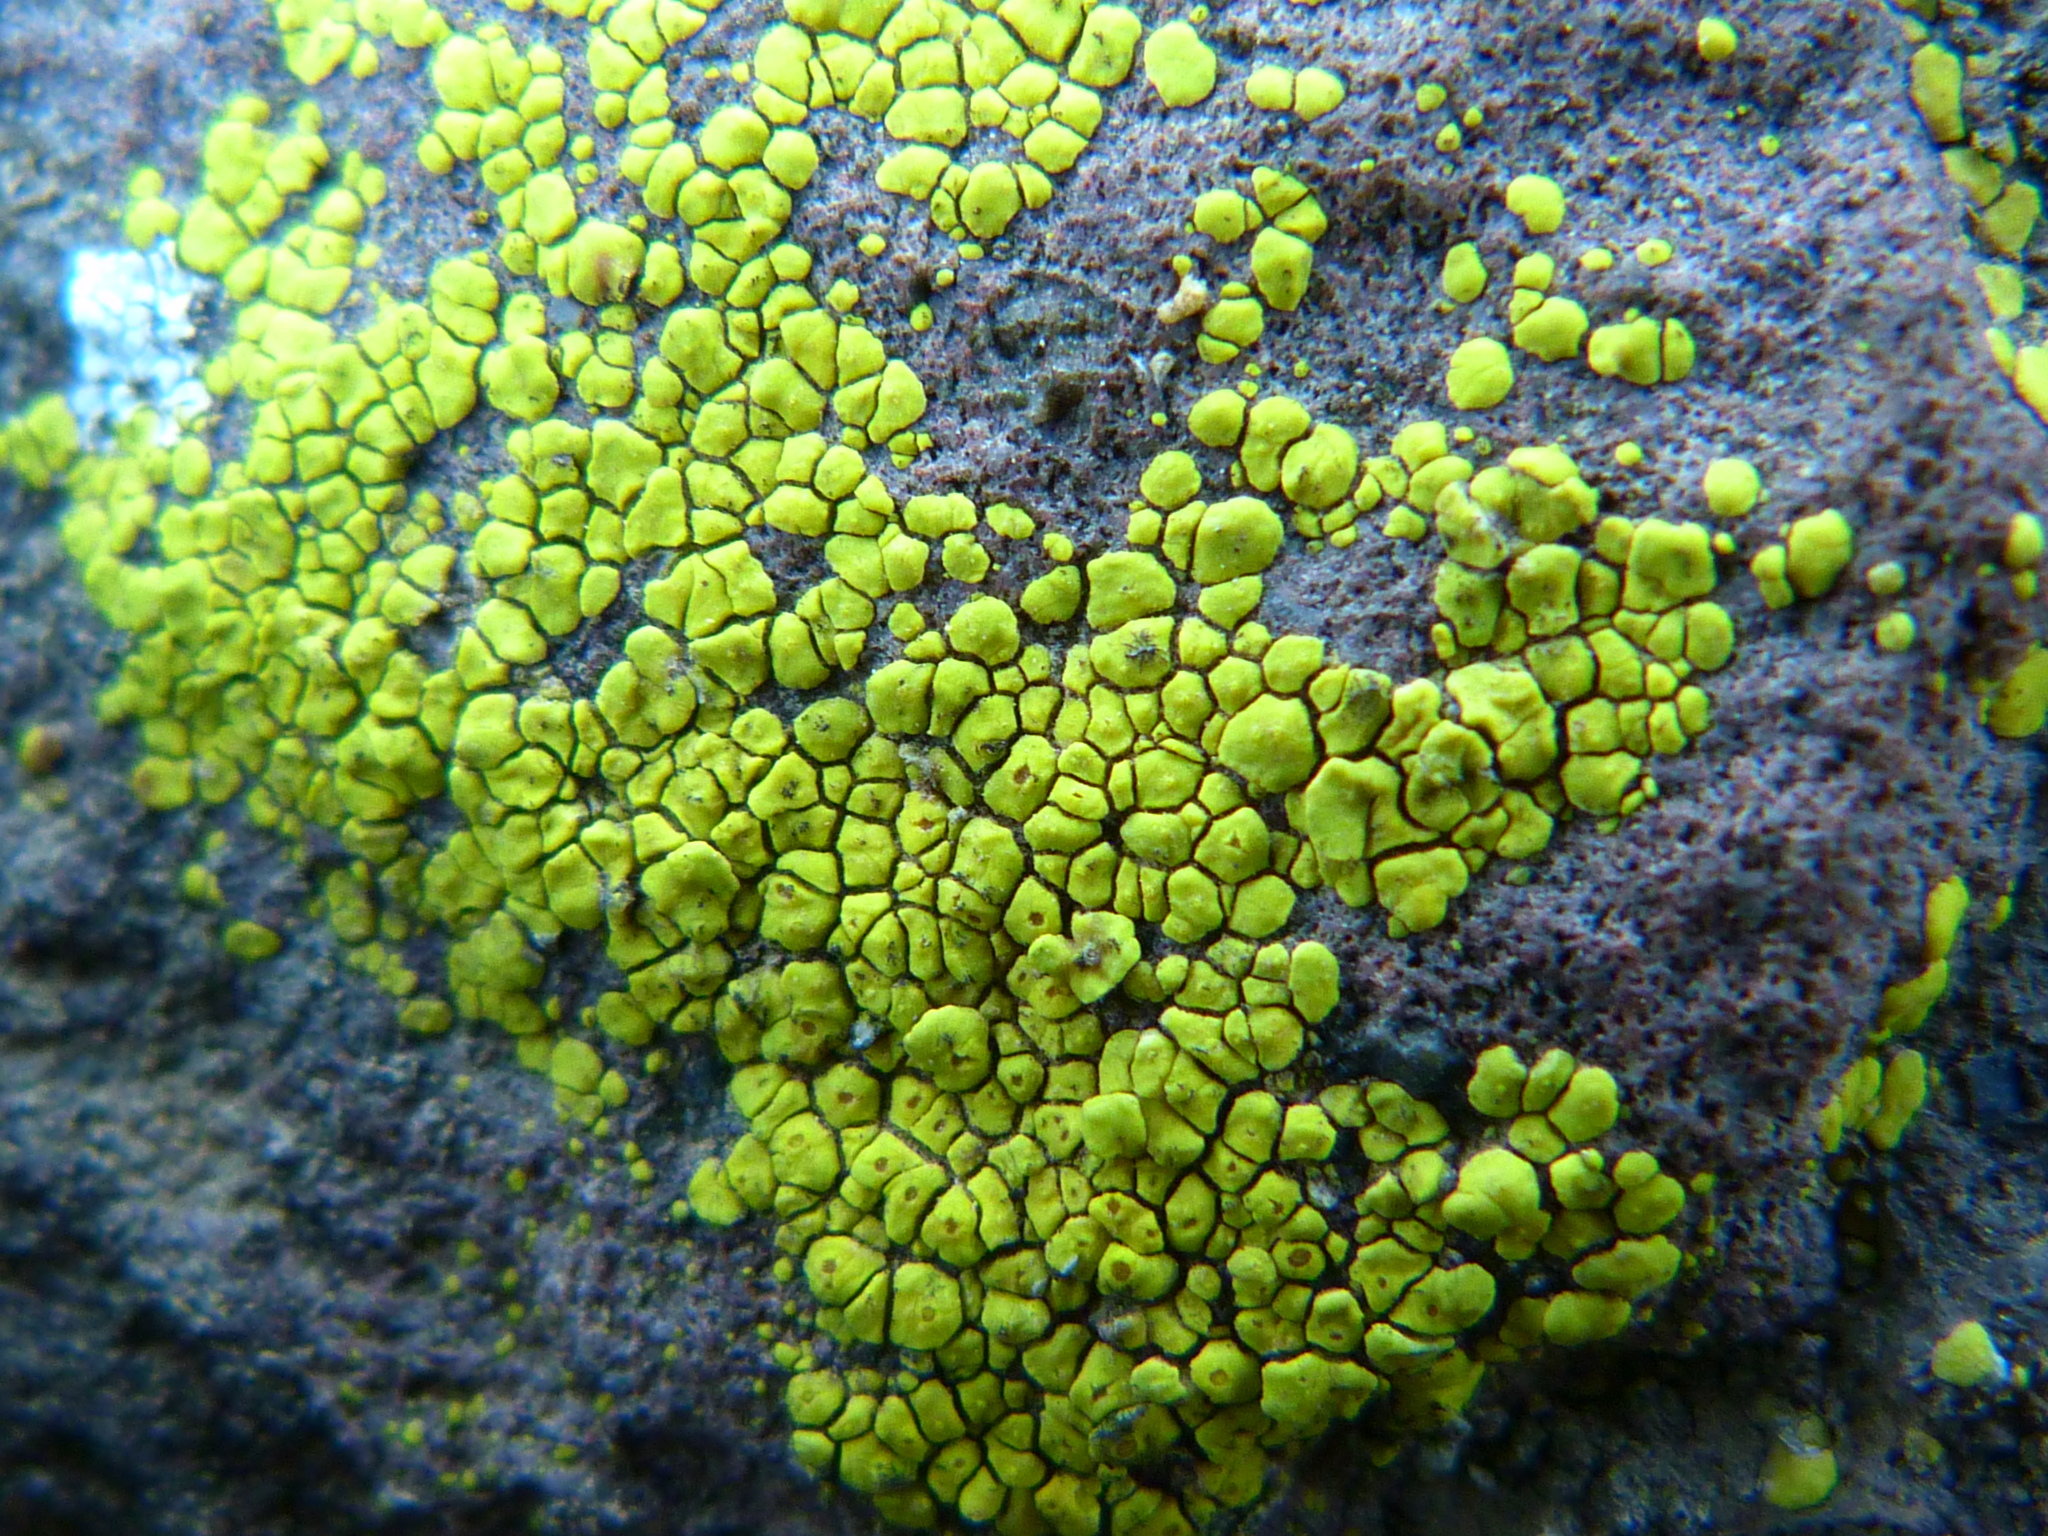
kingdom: Fungi
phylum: Ascomycota
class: Lecanoromycetes
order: Acarosporales
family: Acarosporaceae
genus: Acarospora
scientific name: Acarospora socialis
